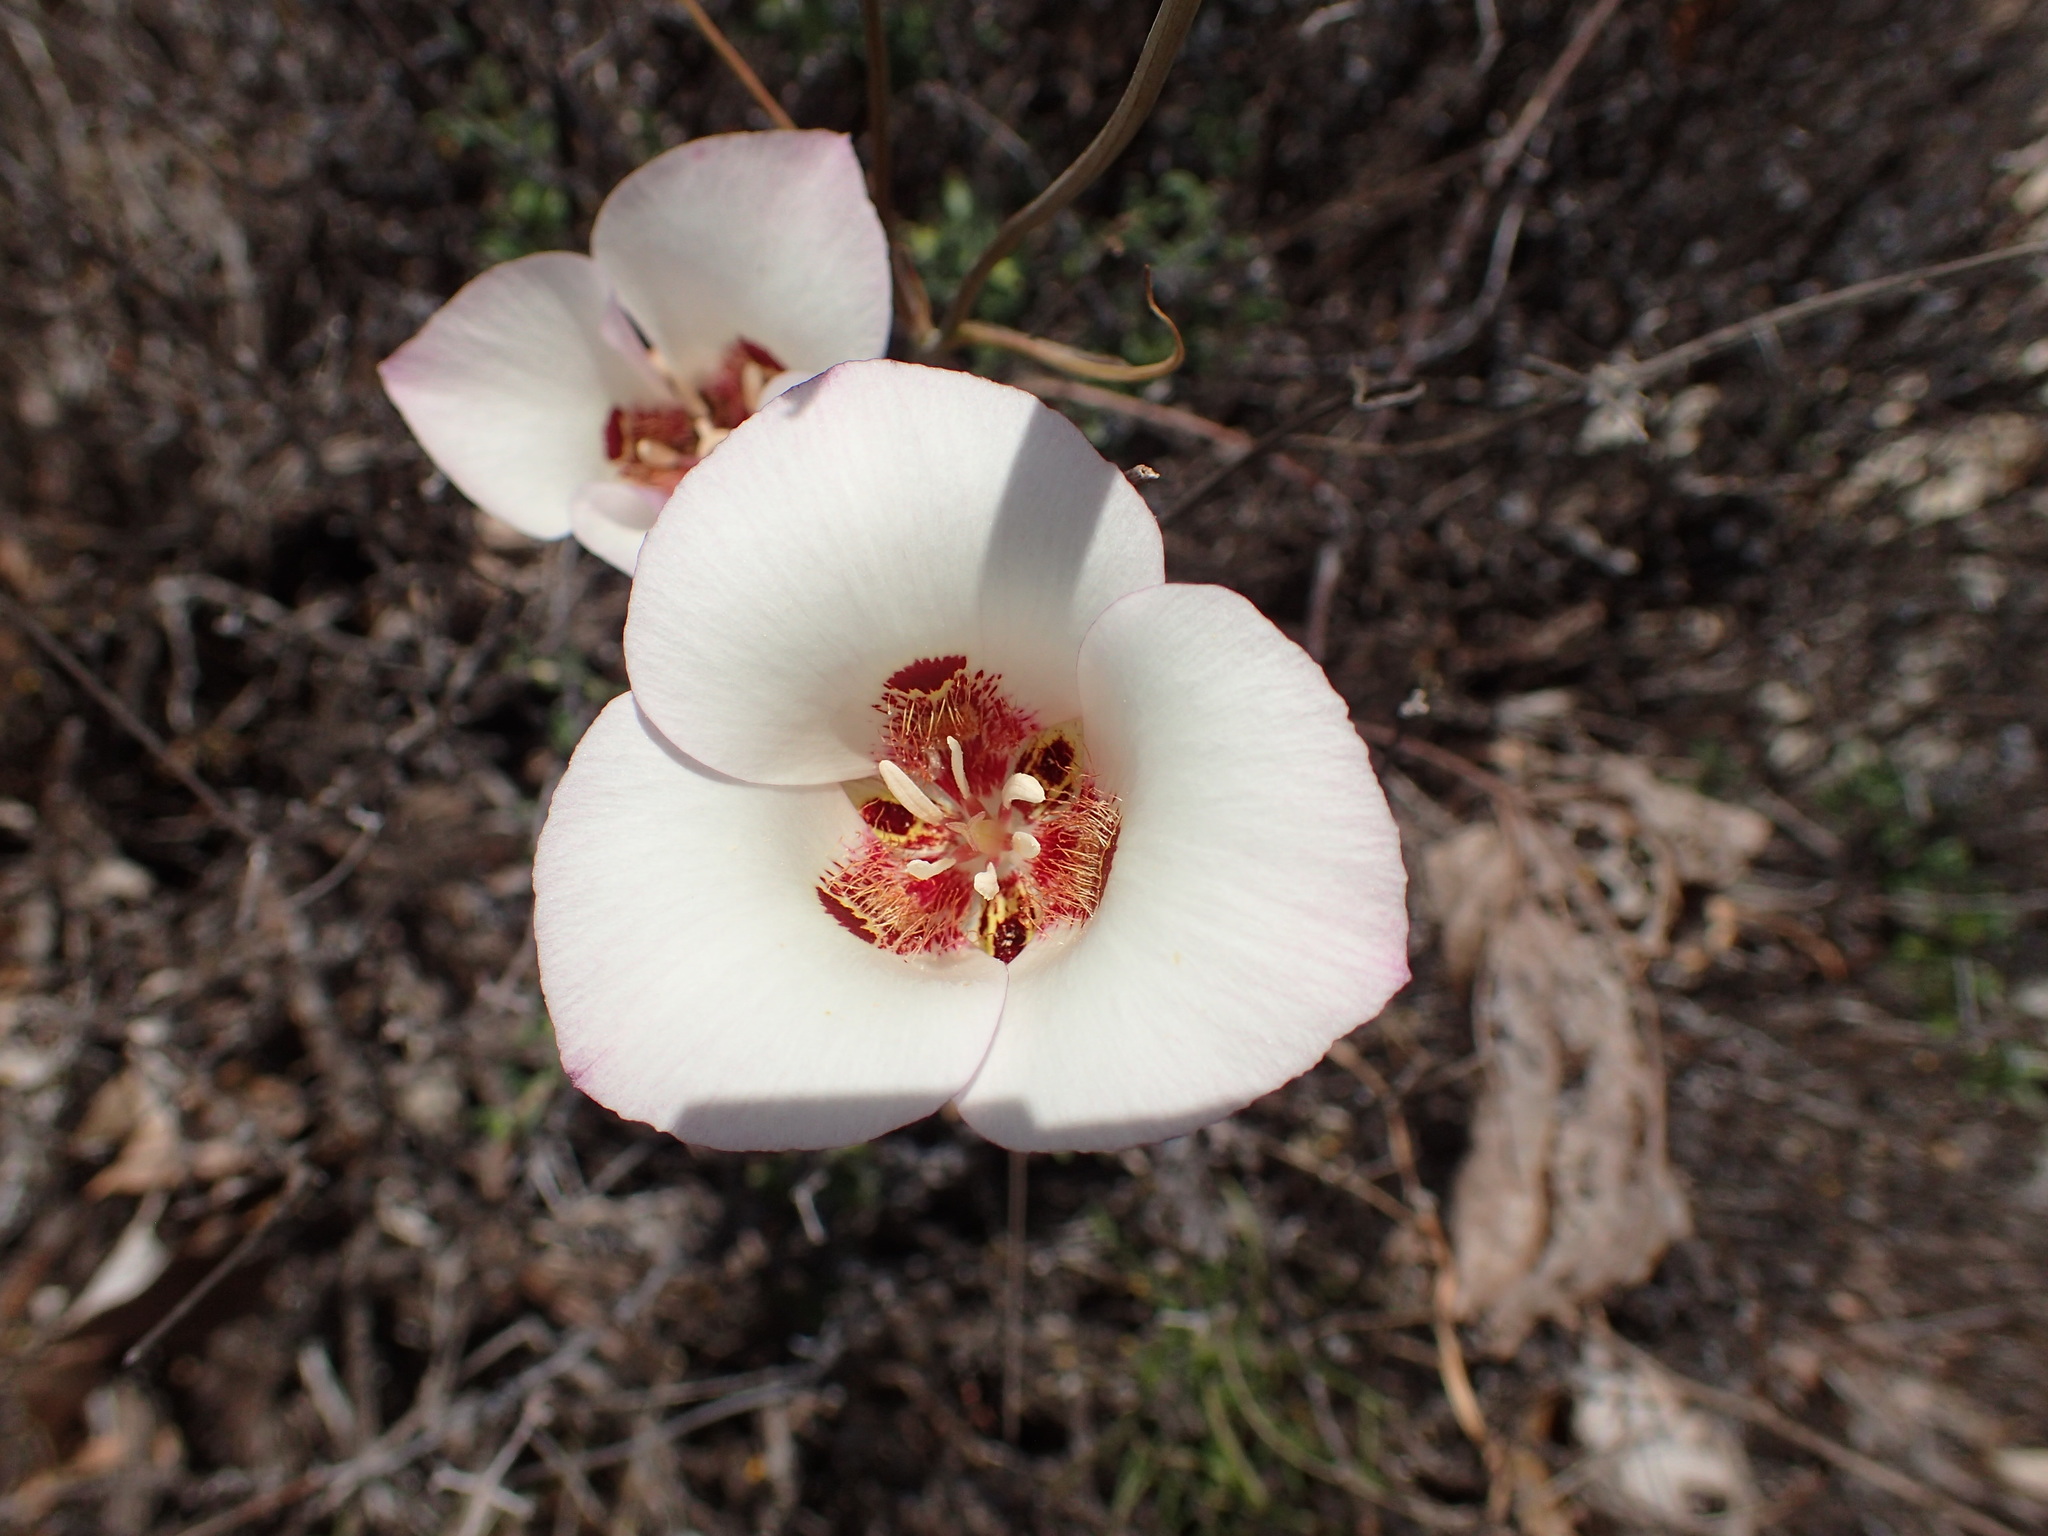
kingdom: Plantae
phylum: Tracheophyta
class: Liliopsida
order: Liliales
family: Liliaceae
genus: Calochortus
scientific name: Calochortus venustus
